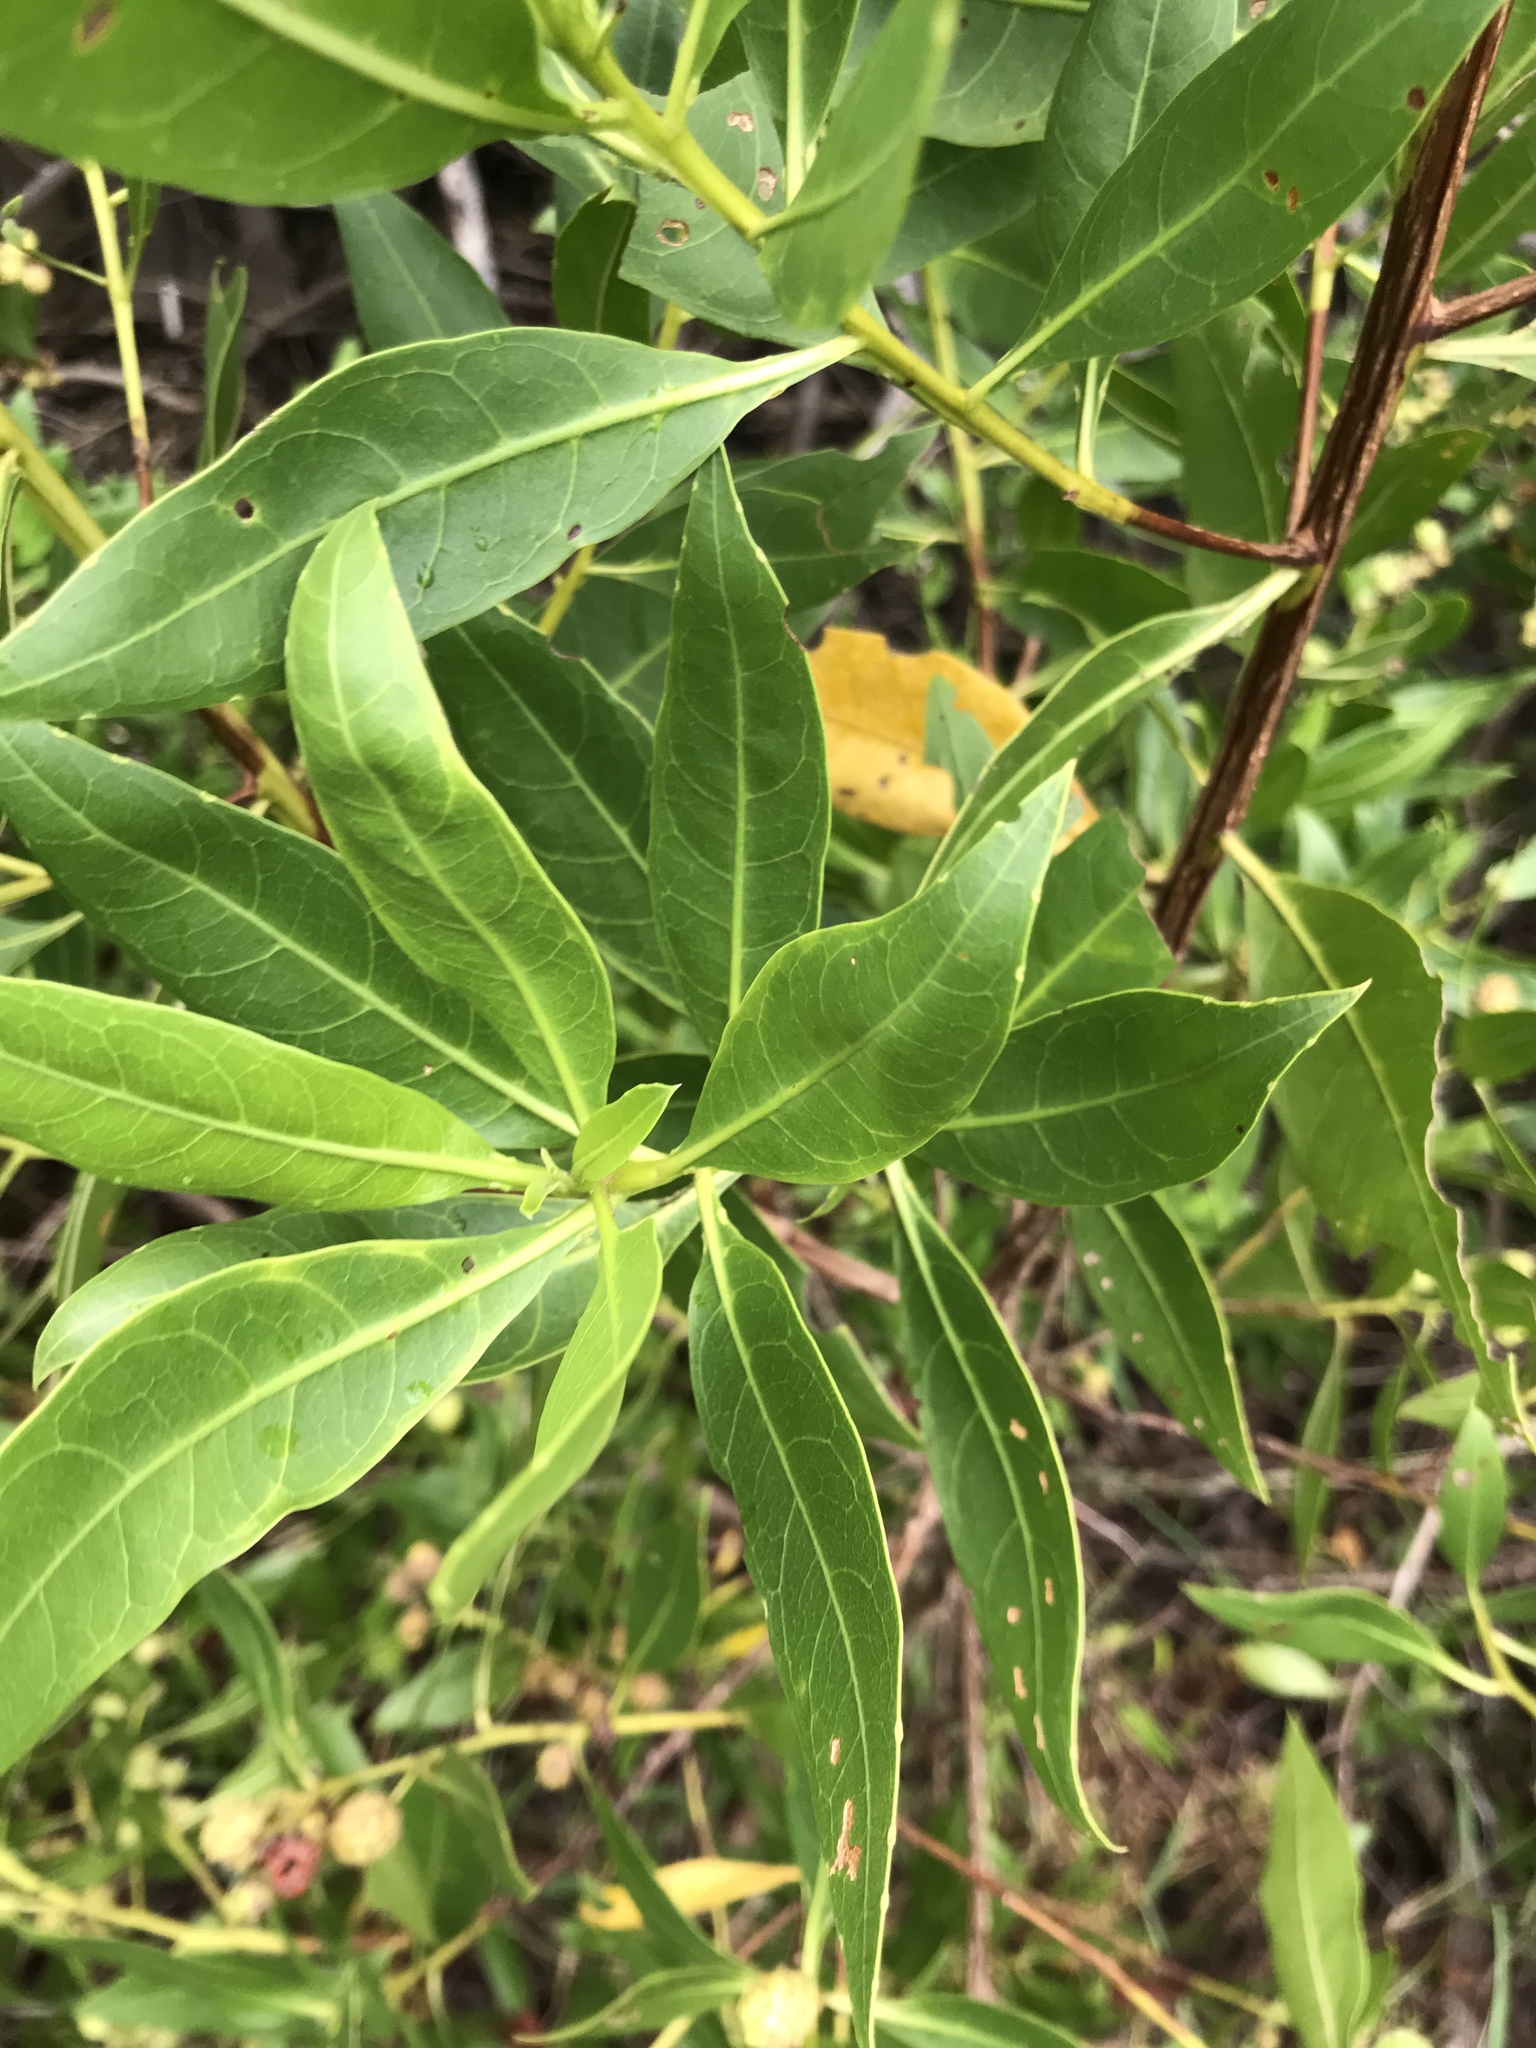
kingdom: Plantae
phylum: Tracheophyta
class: Magnoliopsida
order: Myrtales
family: Combretaceae
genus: Conocarpus
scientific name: Conocarpus erectus
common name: Button mangrove
